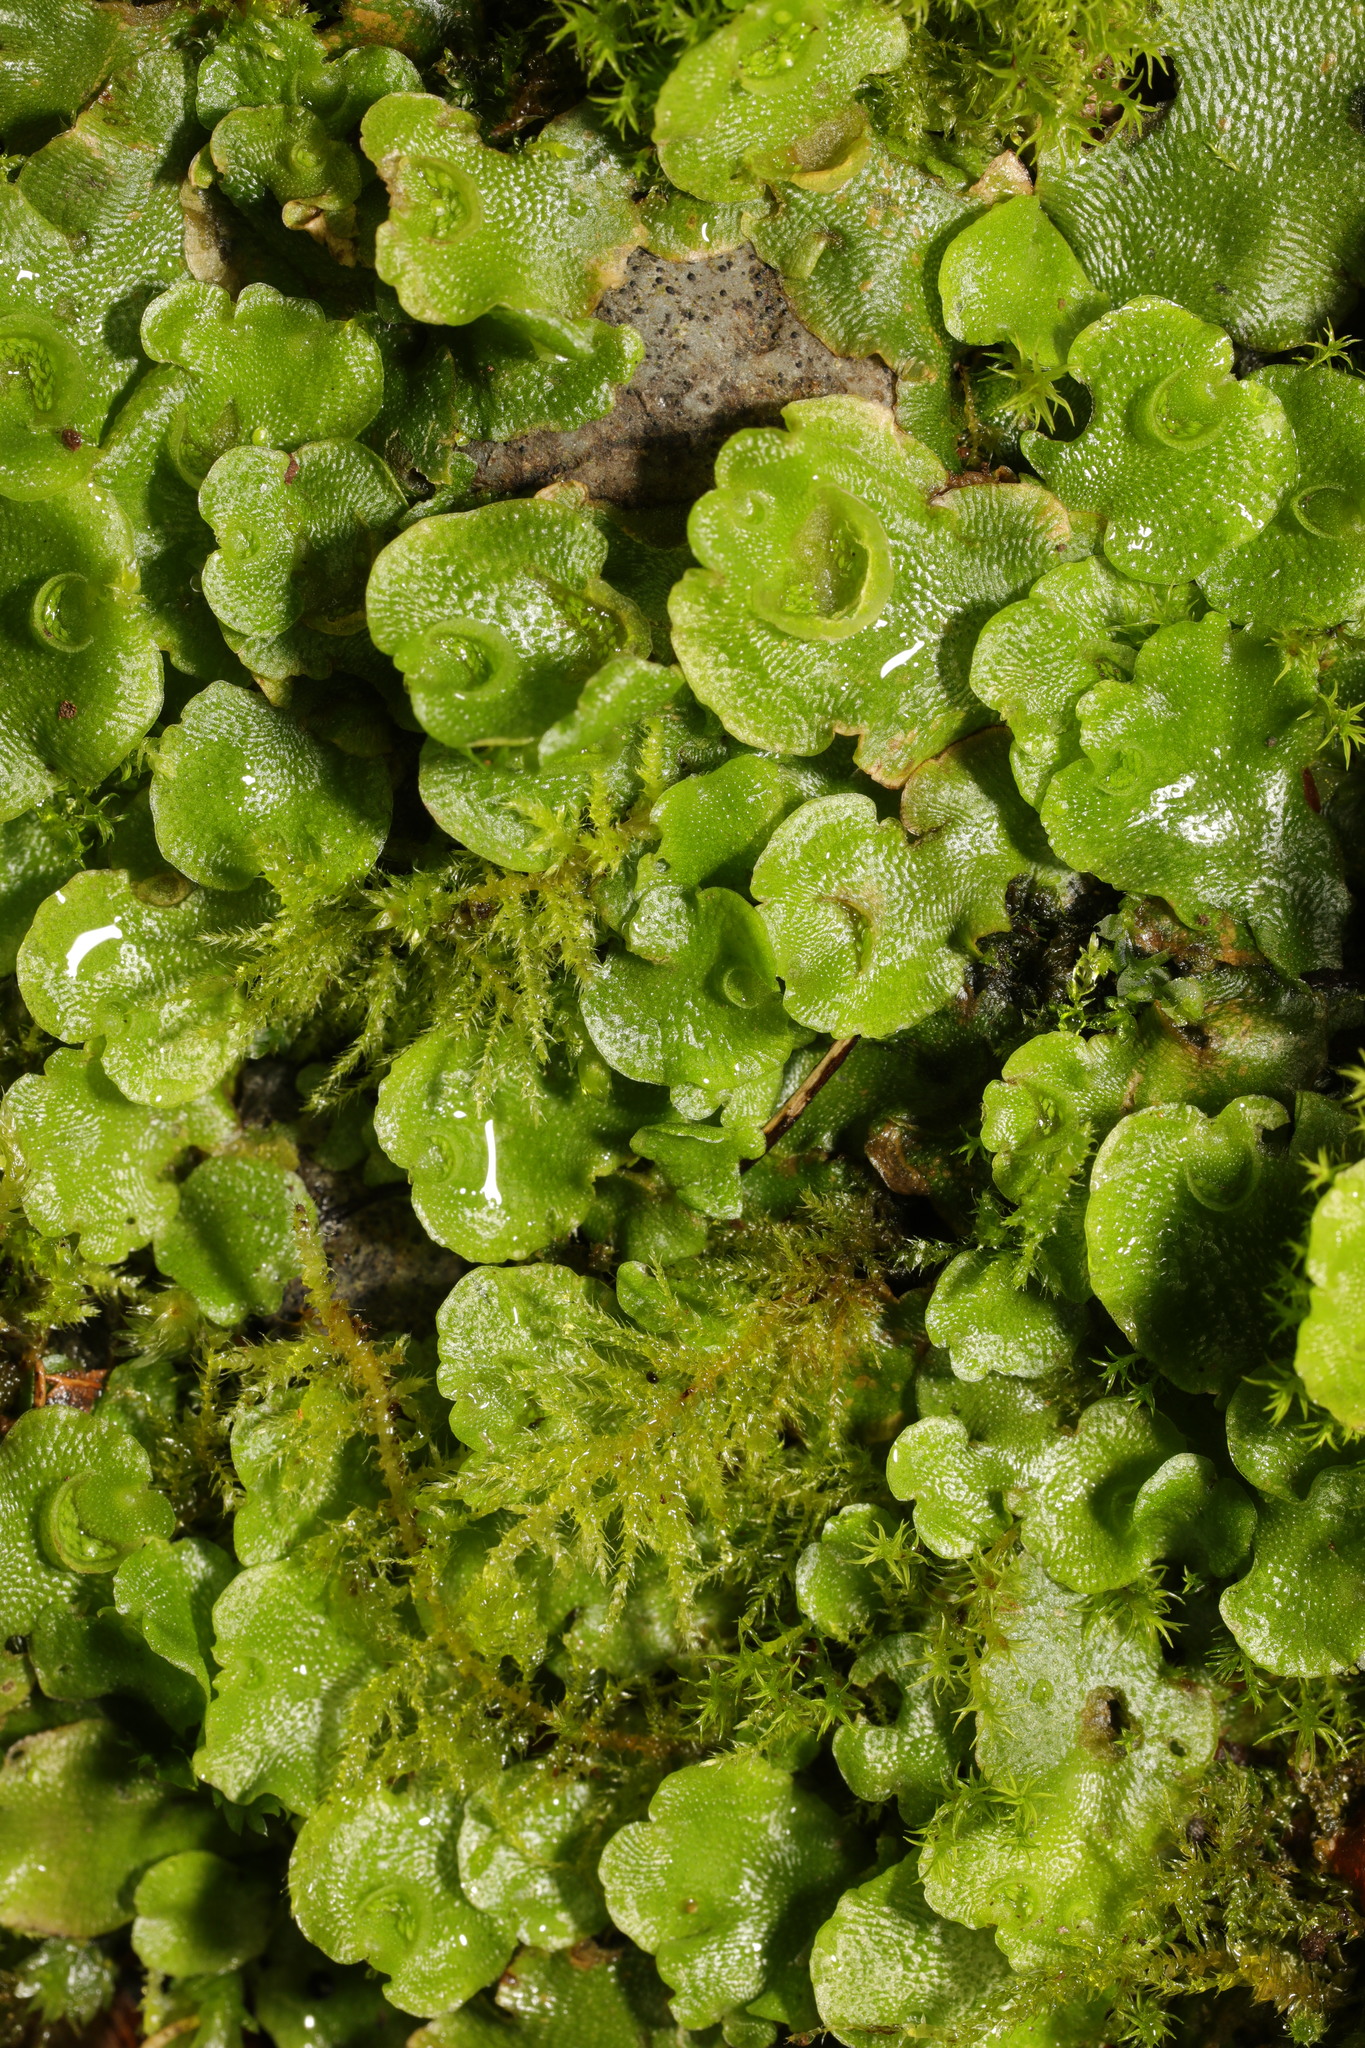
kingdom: Plantae
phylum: Marchantiophyta
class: Marchantiopsida
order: Lunulariales
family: Lunulariaceae
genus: Lunularia
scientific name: Lunularia cruciata
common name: Crescent-cup liverwort
